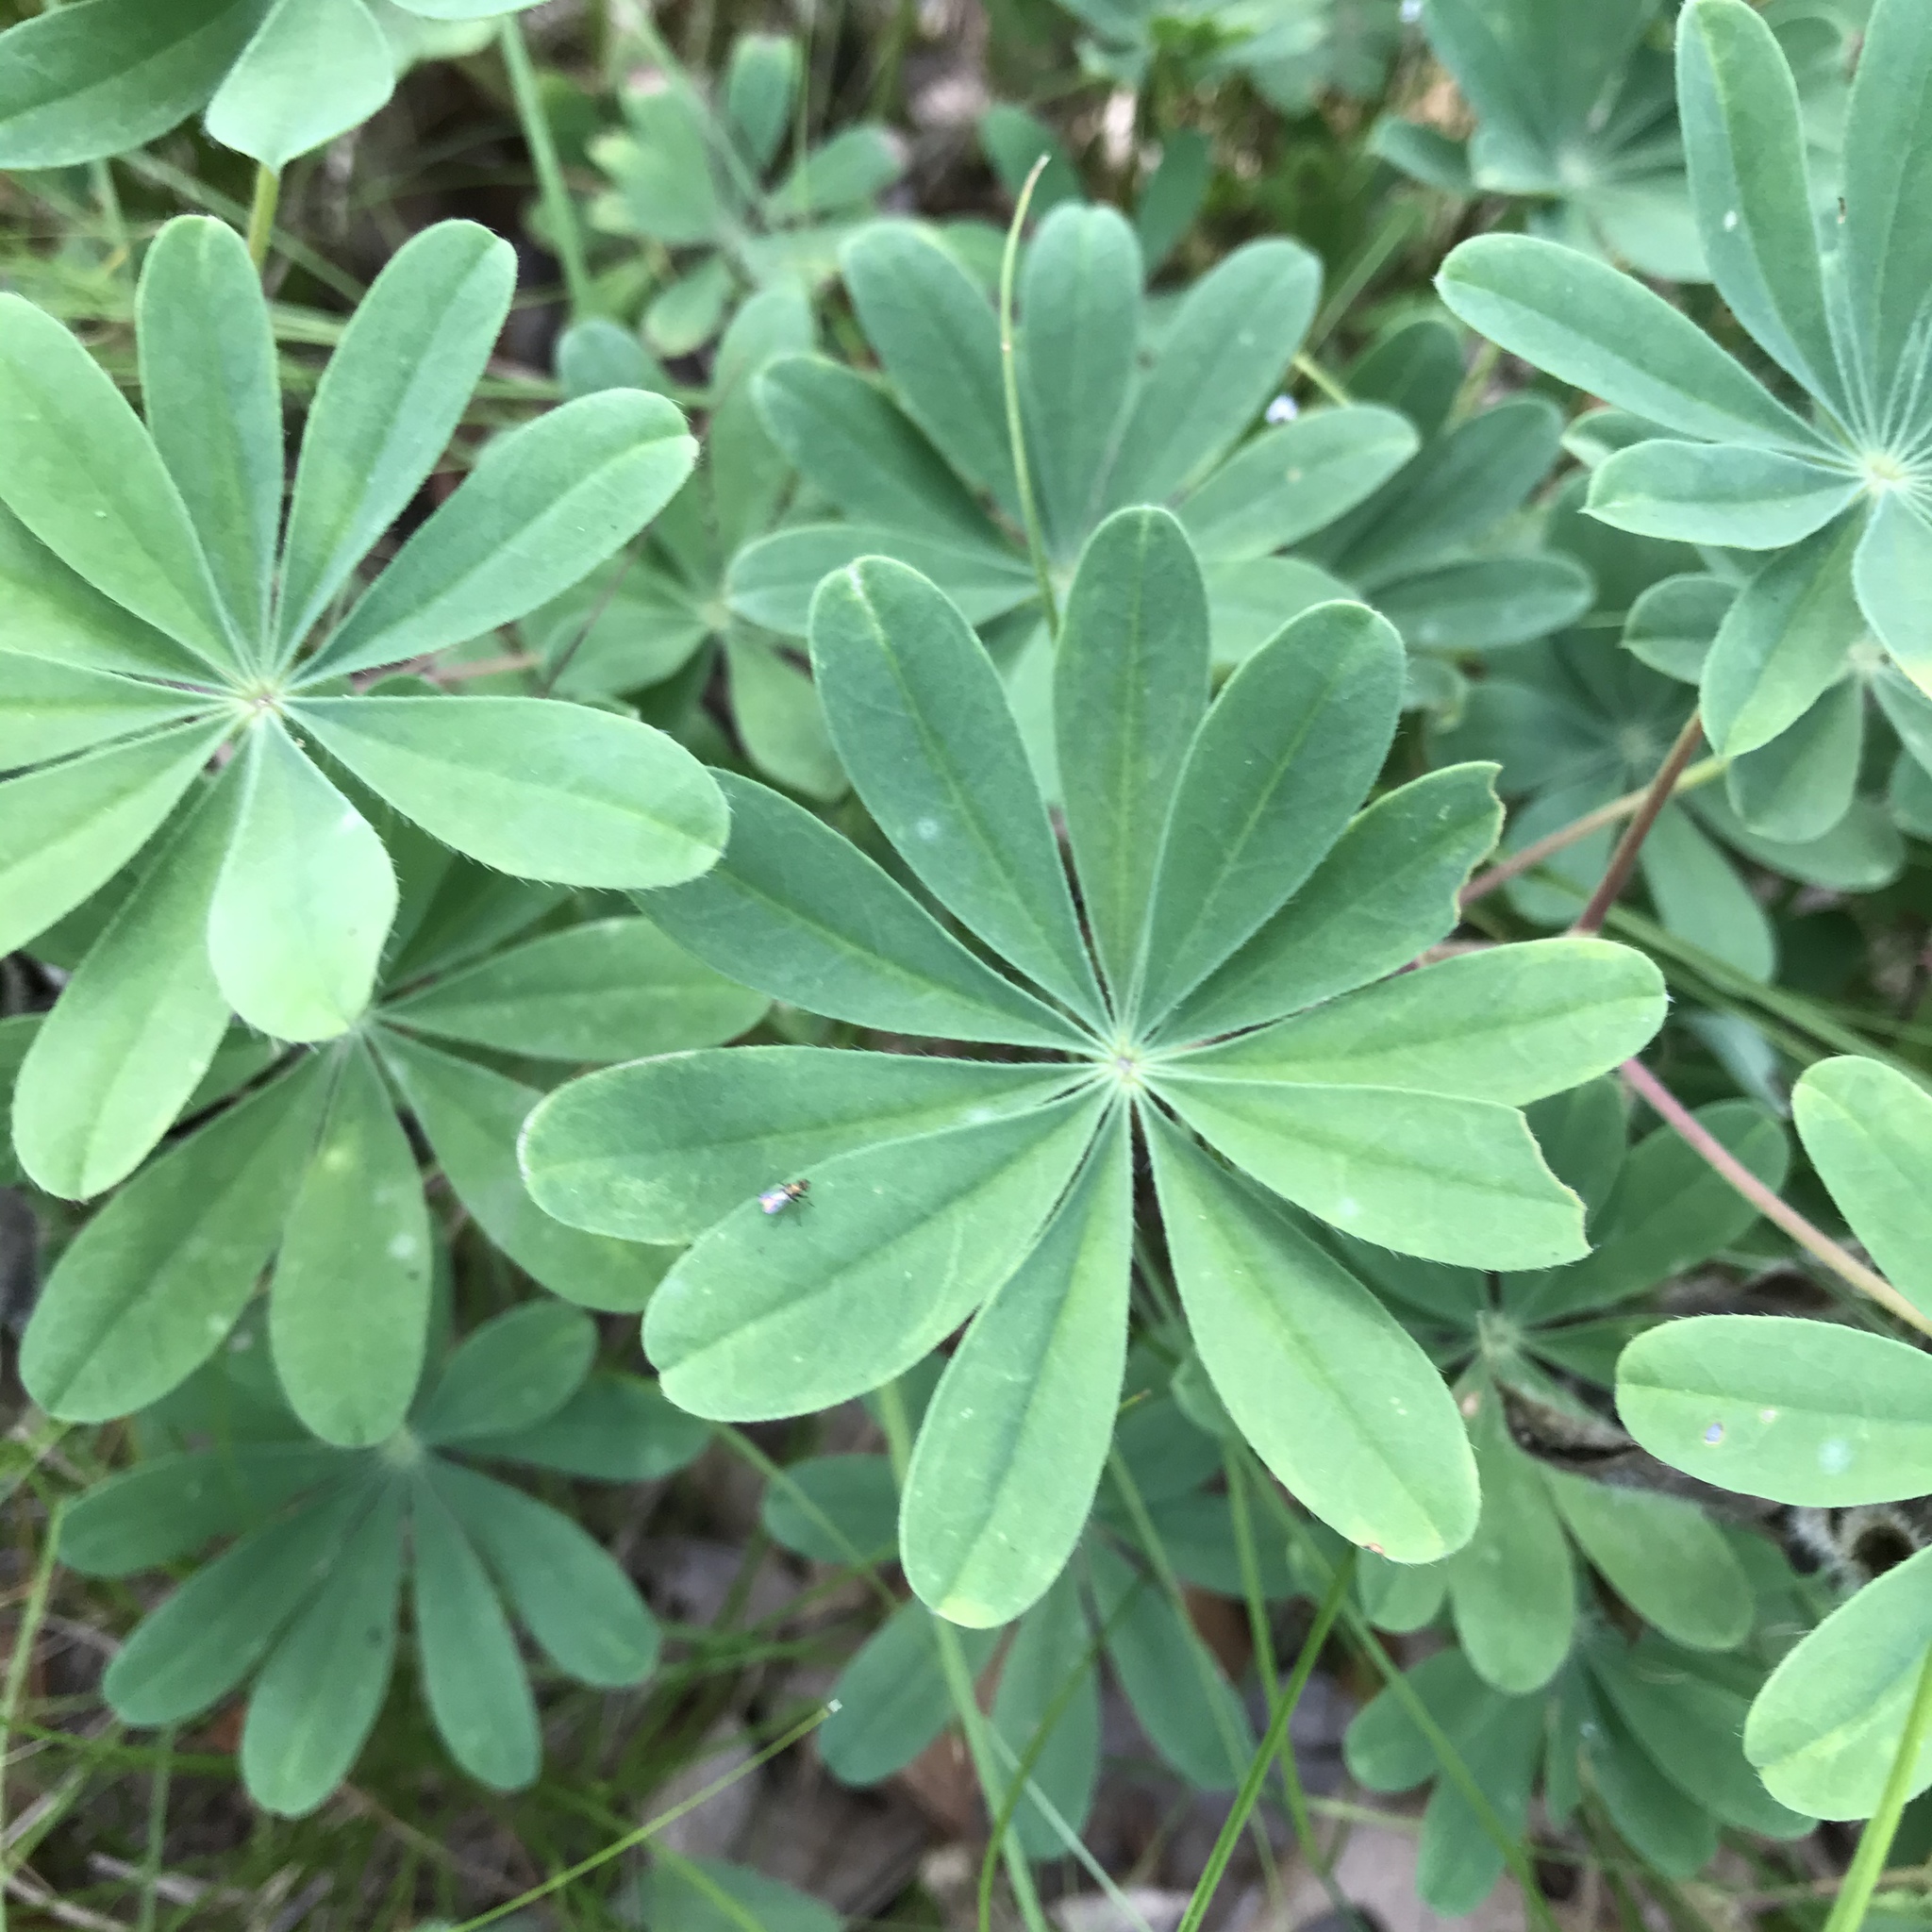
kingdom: Plantae
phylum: Tracheophyta
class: Magnoliopsida
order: Fabales
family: Fabaceae
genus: Lupinus
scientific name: Lupinus perennis
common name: Sundial lupine
